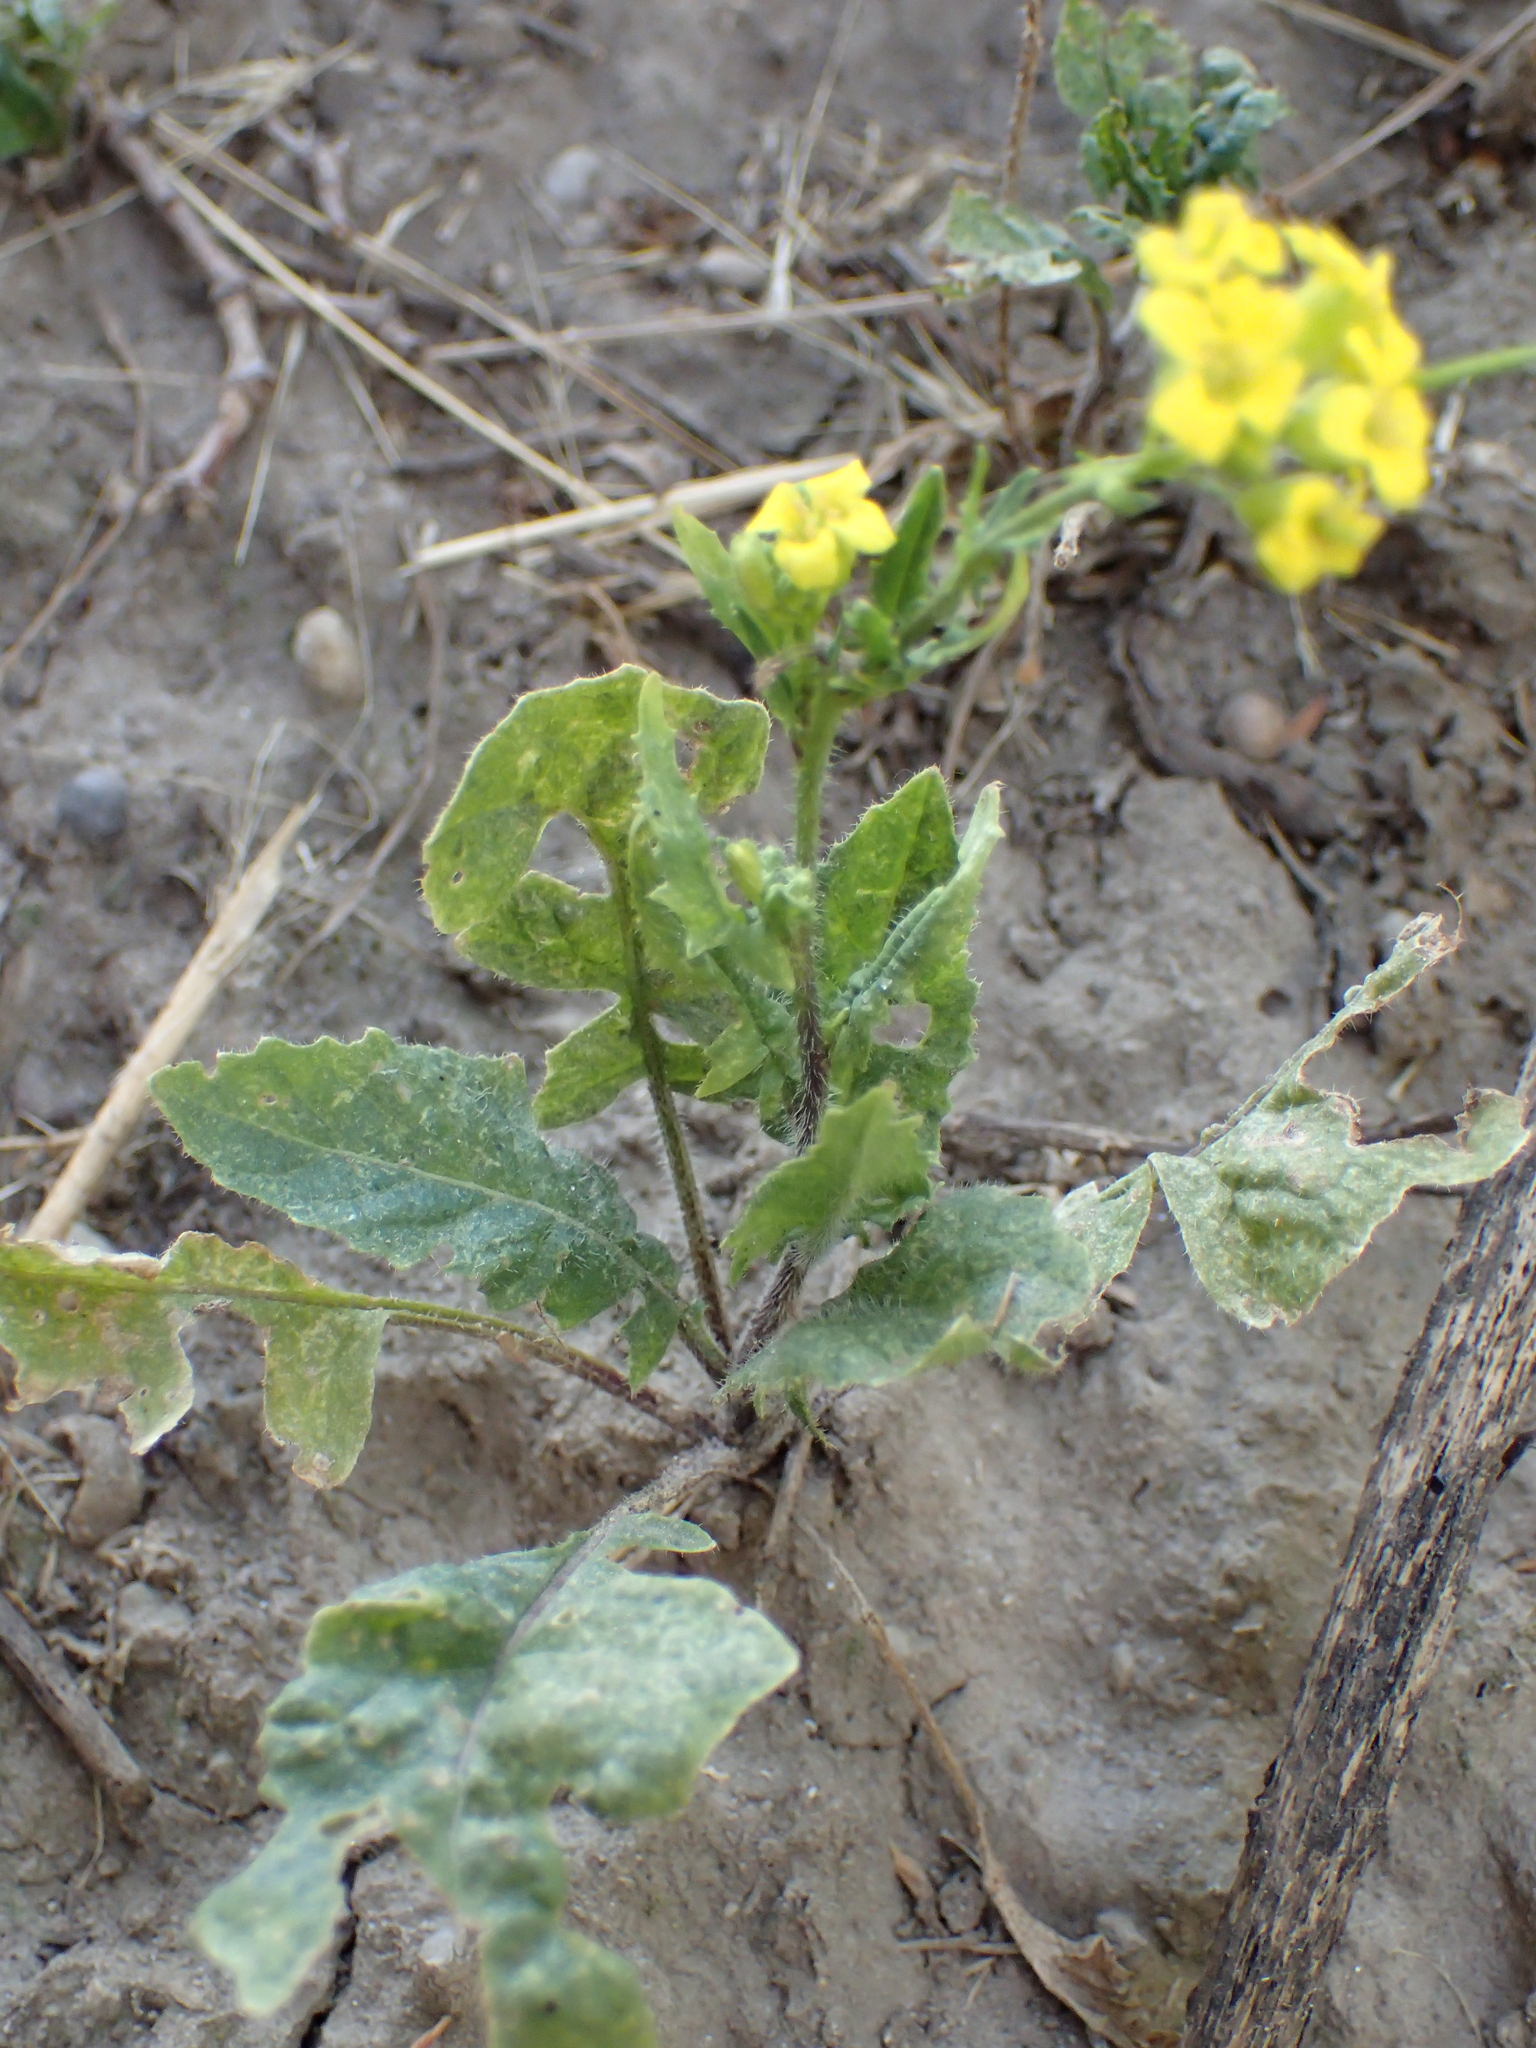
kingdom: Plantae
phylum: Tracheophyta
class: Magnoliopsida
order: Brassicales
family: Brassicaceae
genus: Sisymbrium
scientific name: Sisymbrium loeselii
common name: False london-rocket
